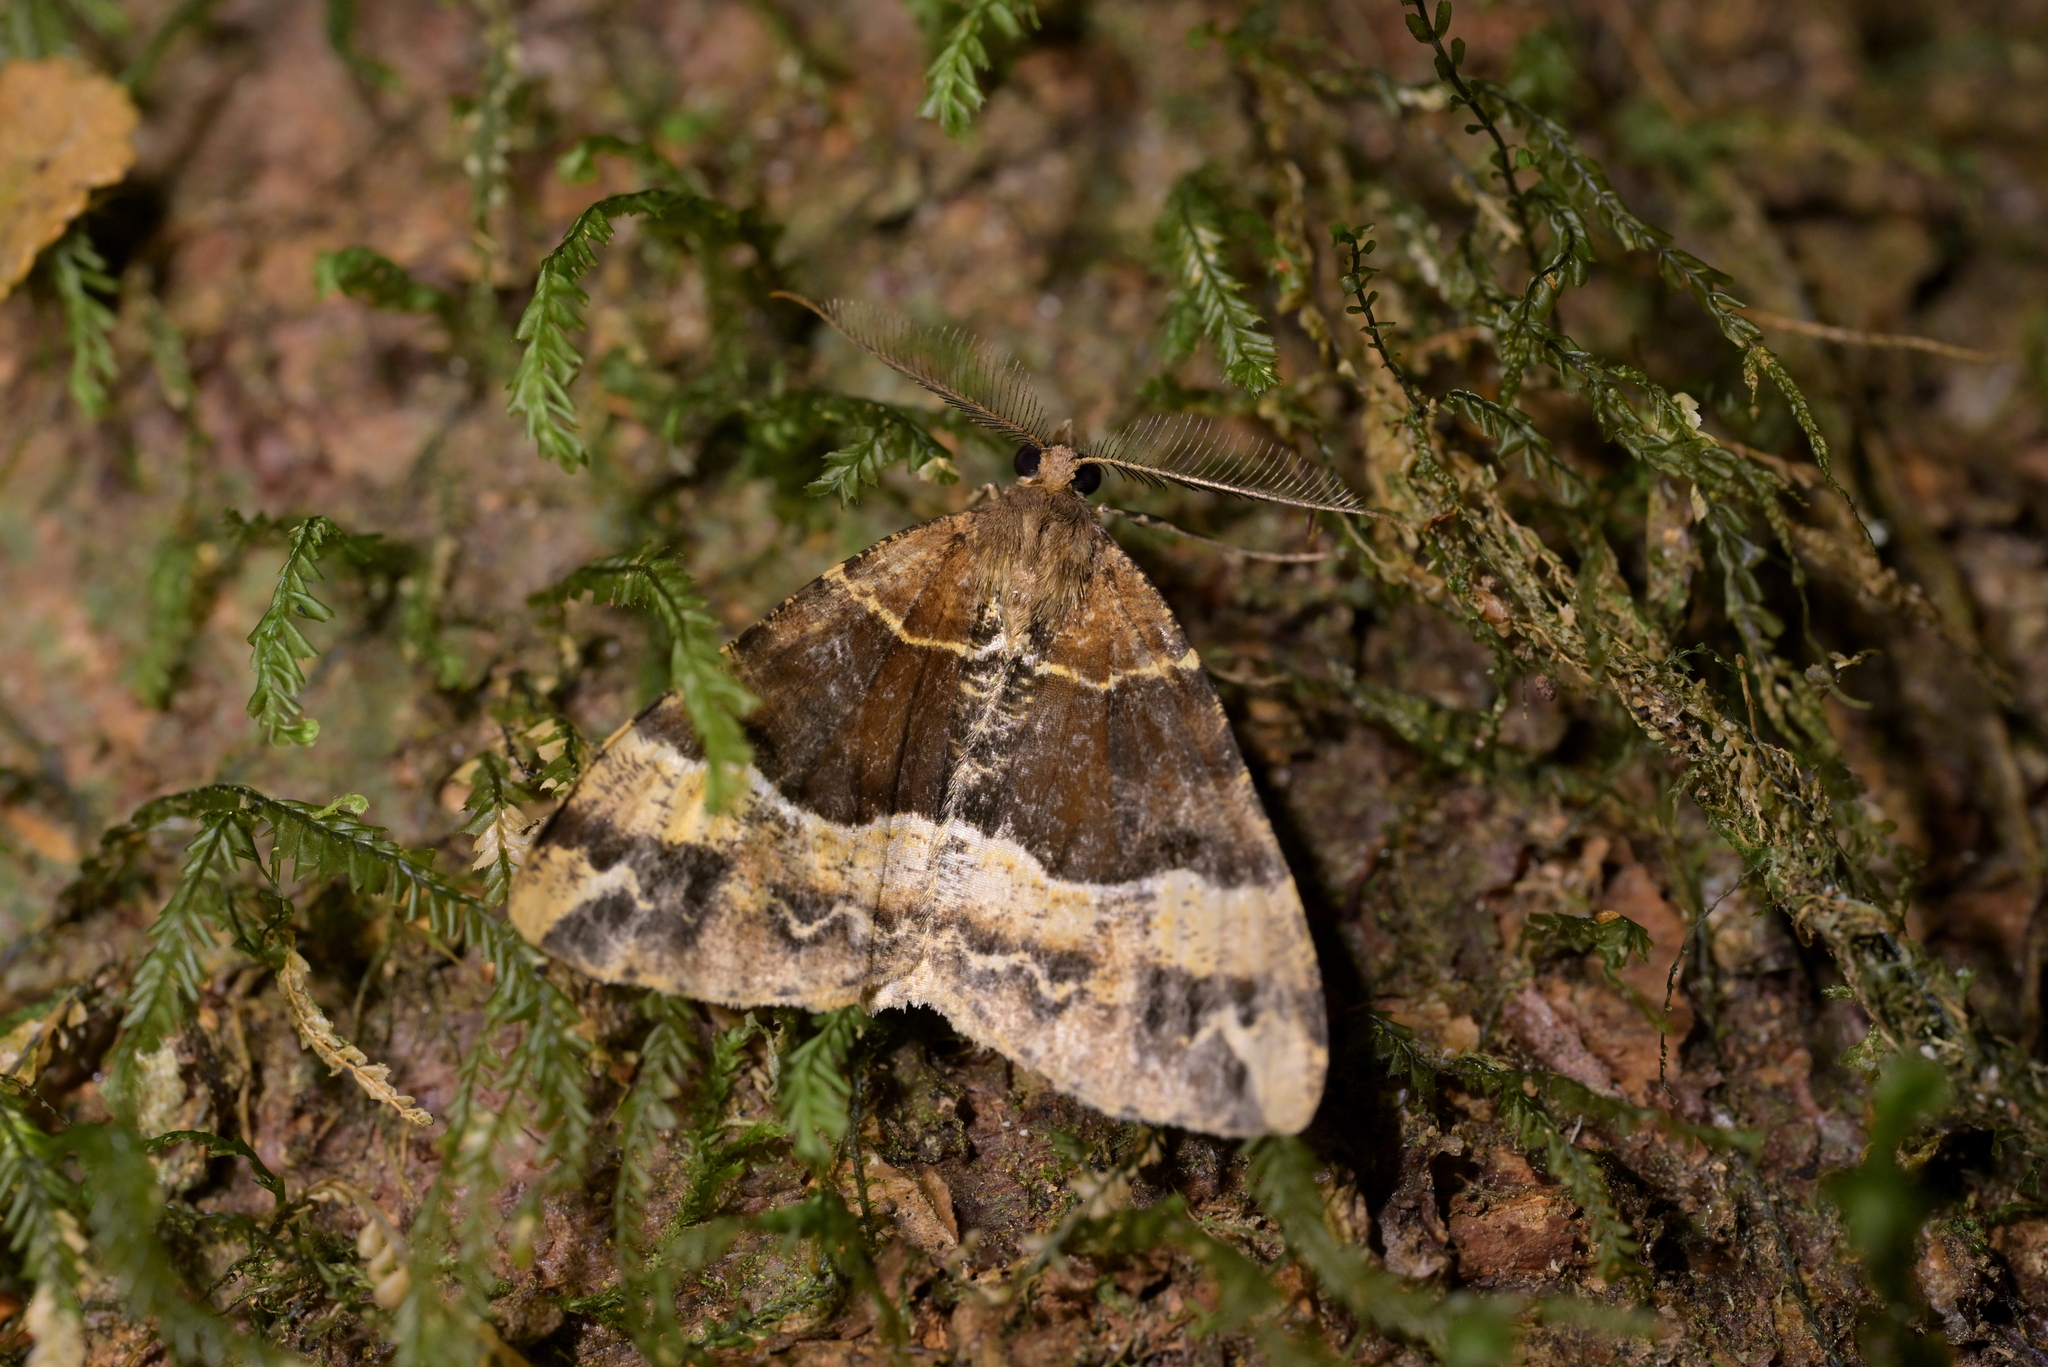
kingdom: Animalia
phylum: Arthropoda
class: Insecta
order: Lepidoptera
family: Geometridae
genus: Pseudocoremia
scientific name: Pseudocoremia fascialata
